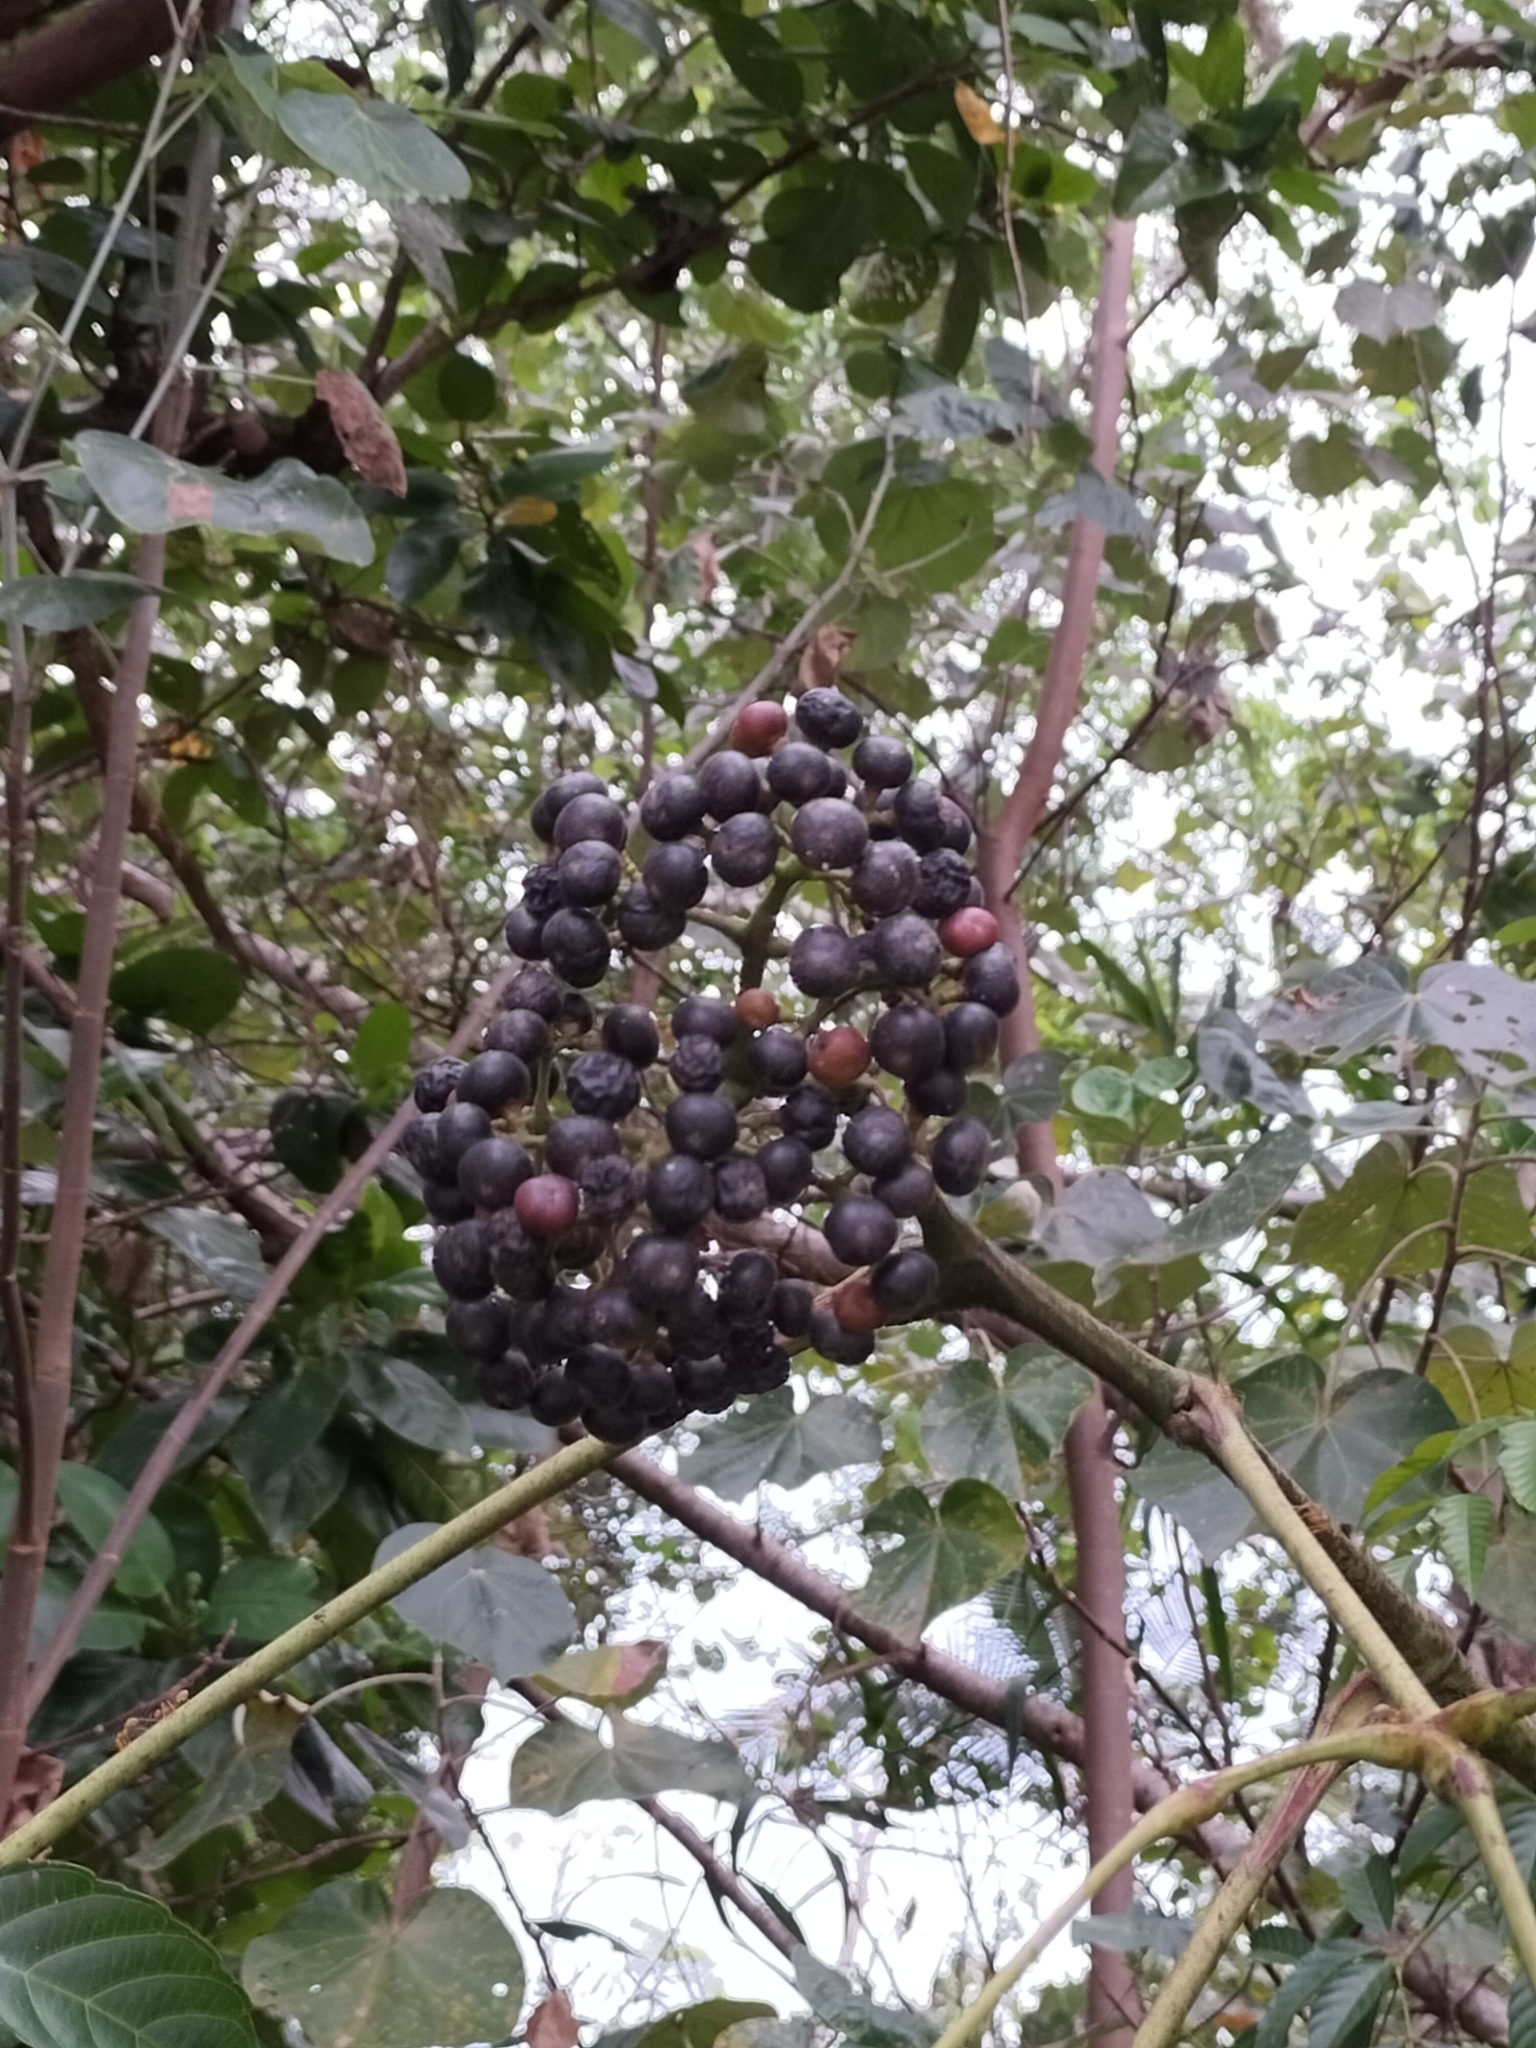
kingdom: Plantae
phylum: Tracheophyta
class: Magnoliopsida
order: Vitales
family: Vitaceae
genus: Leea
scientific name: Leea nova-guineensis
